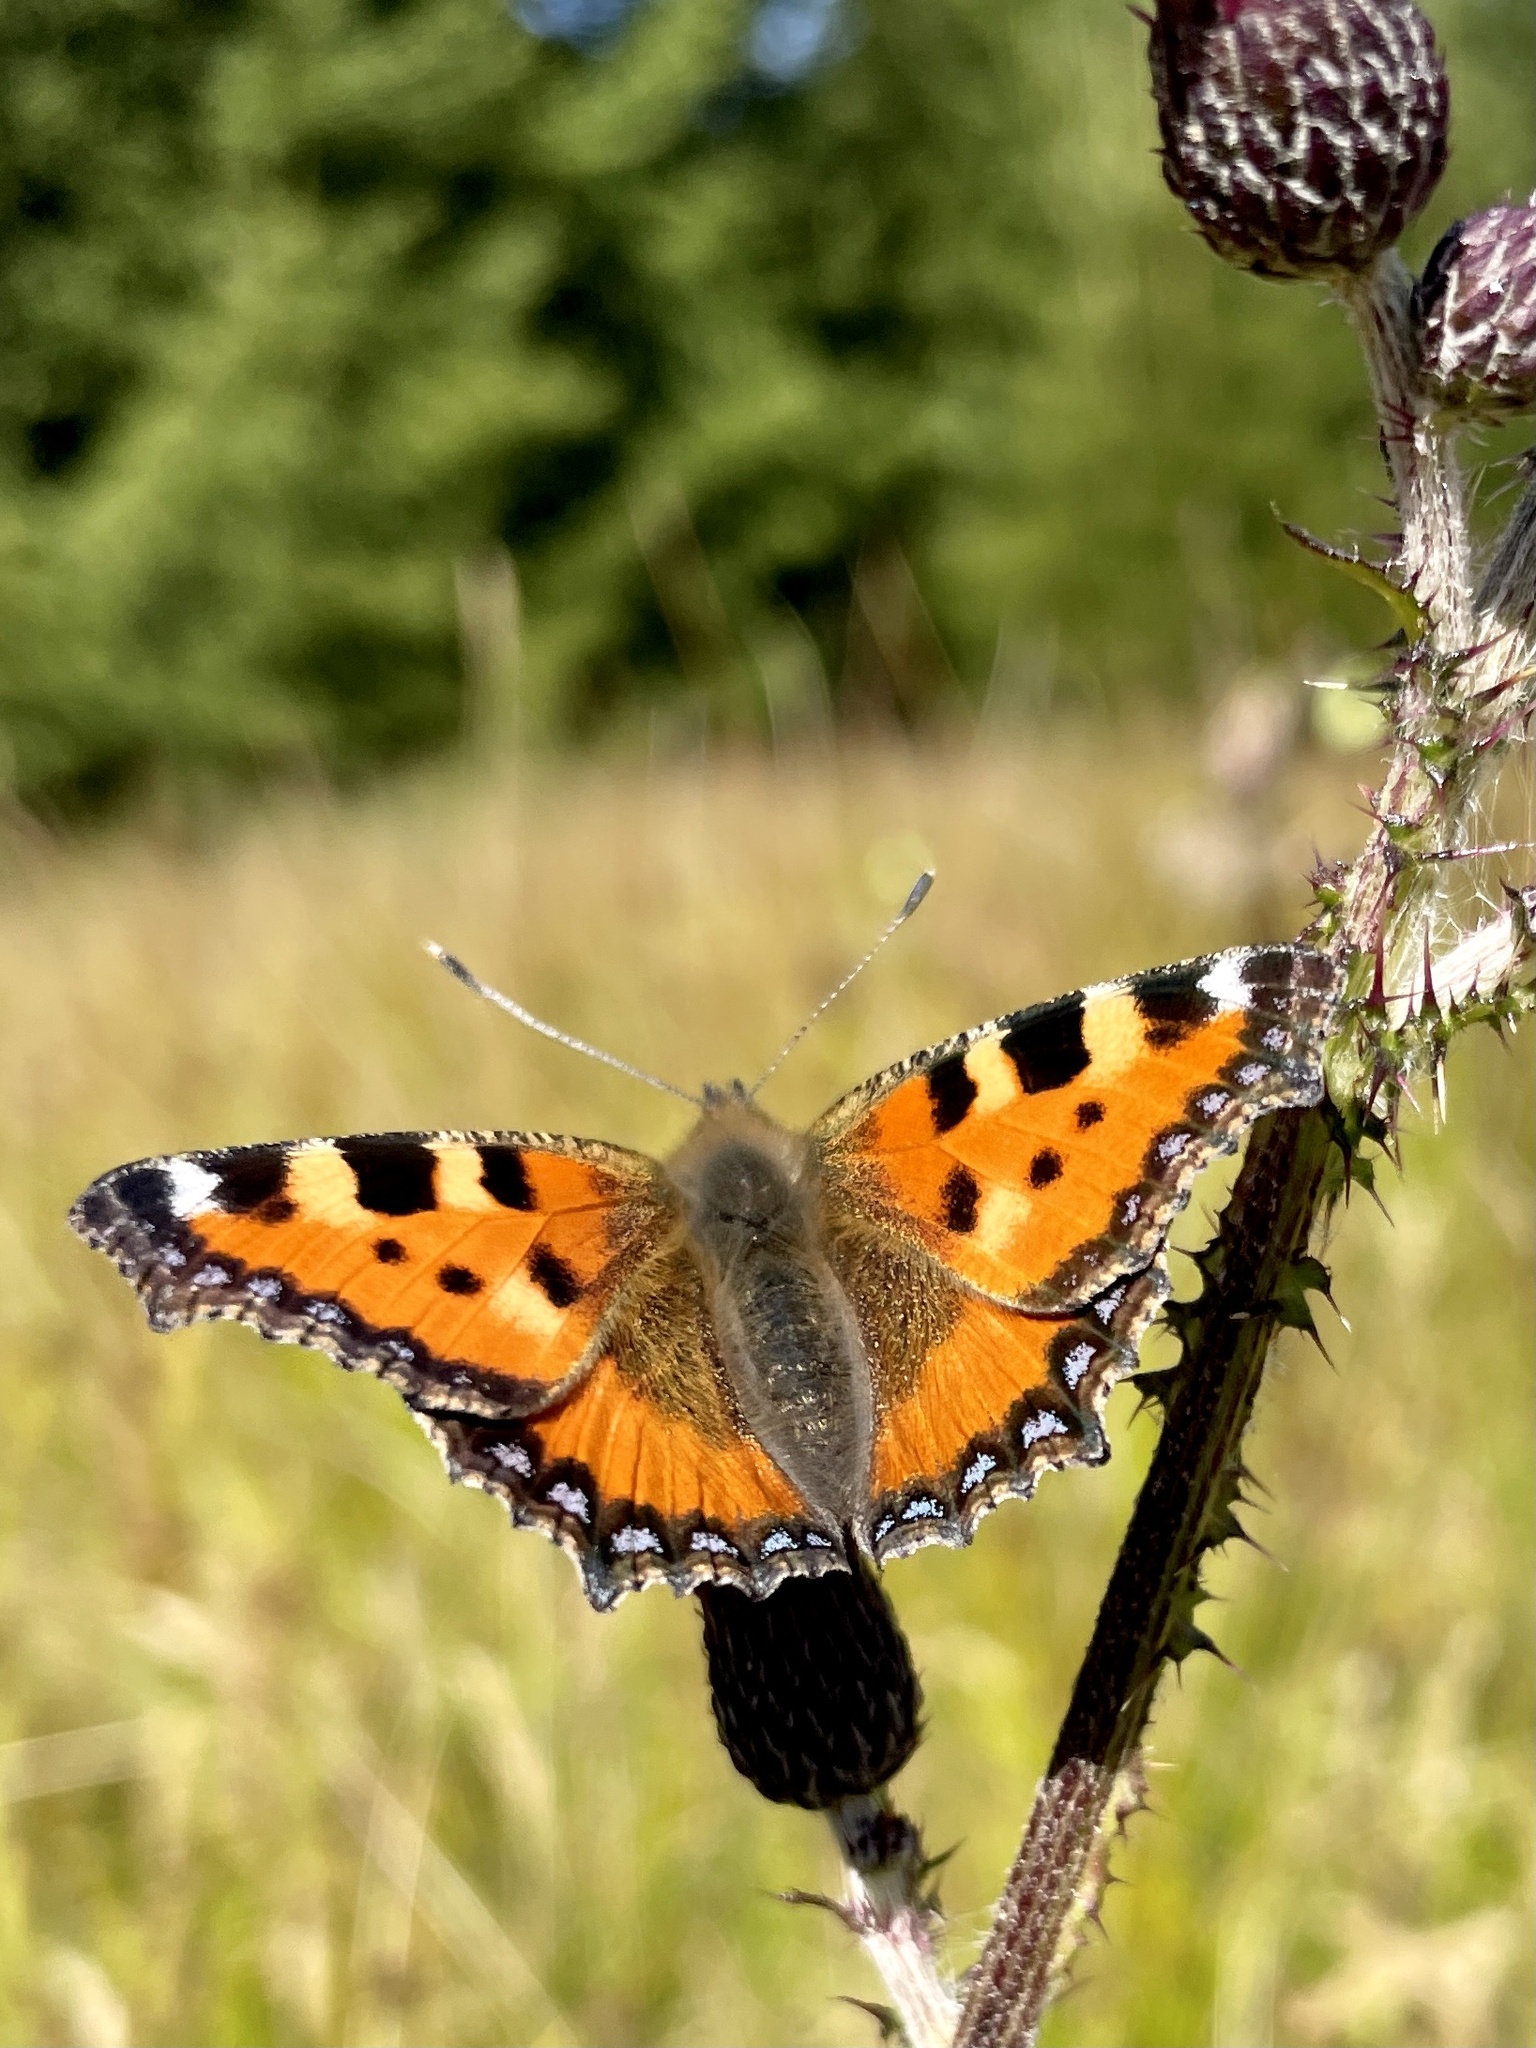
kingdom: Animalia
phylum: Arthropoda
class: Insecta
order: Lepidoptera
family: Nymphalidae
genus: Aglais
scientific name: Aglais urticae
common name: Small tortoiseshell
